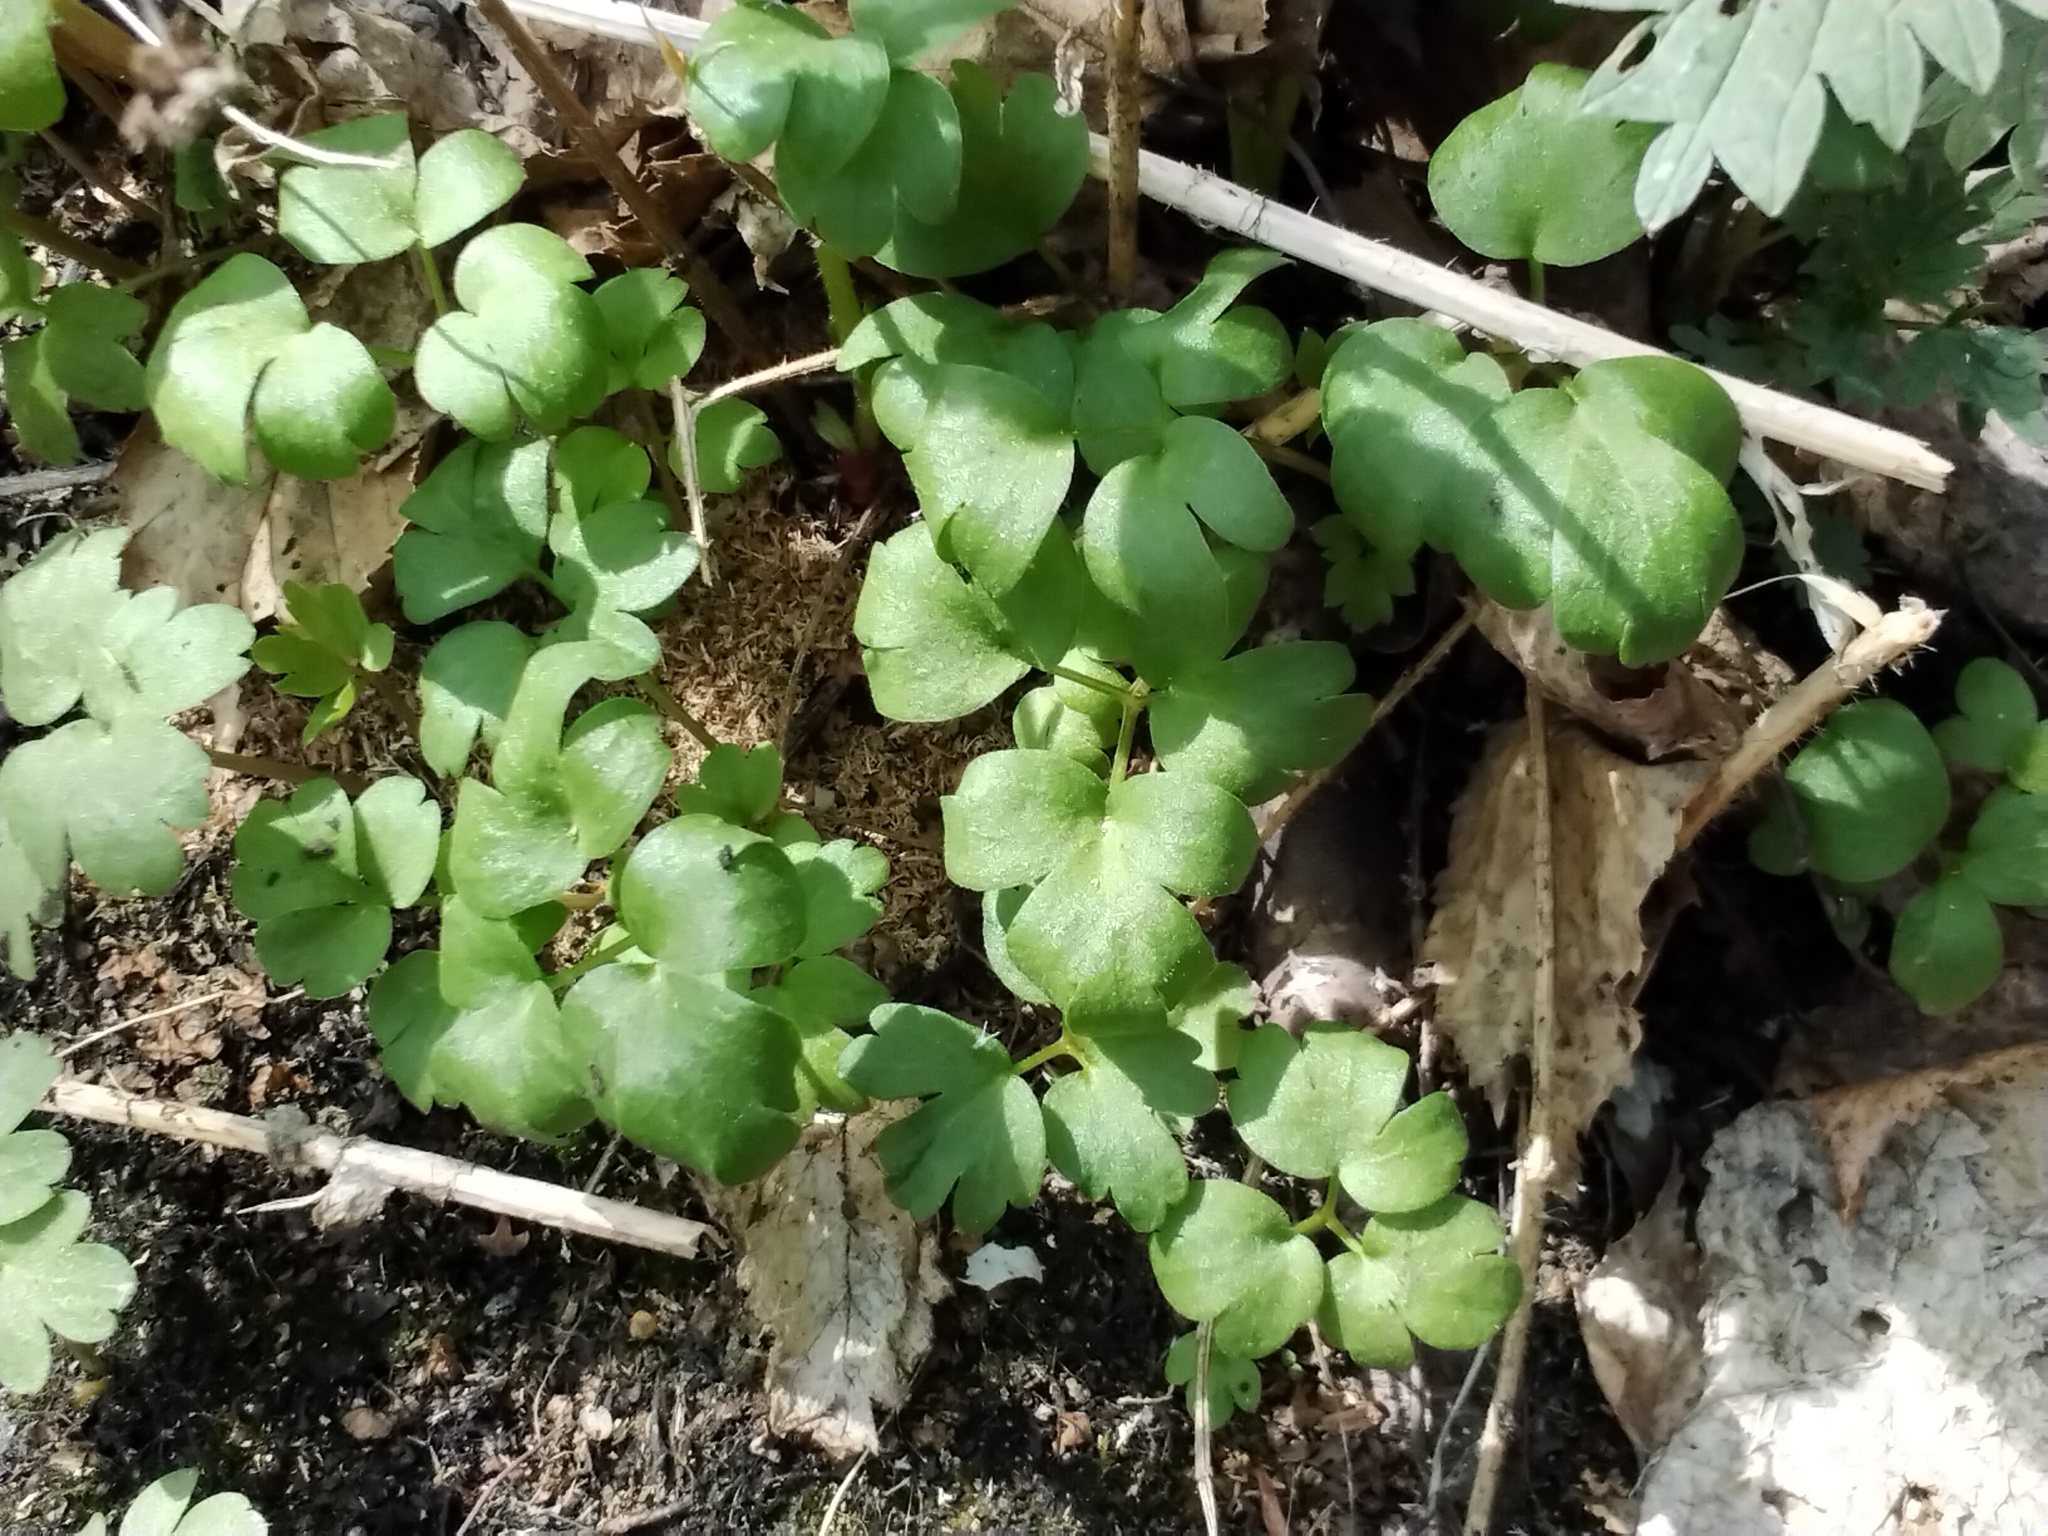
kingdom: Plantae
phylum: Tracheophyta
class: Magnoliopsida
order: Dipsacales
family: Viburnaceae
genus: Adoxa
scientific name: Adoxa moschatellina
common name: Moschatel
